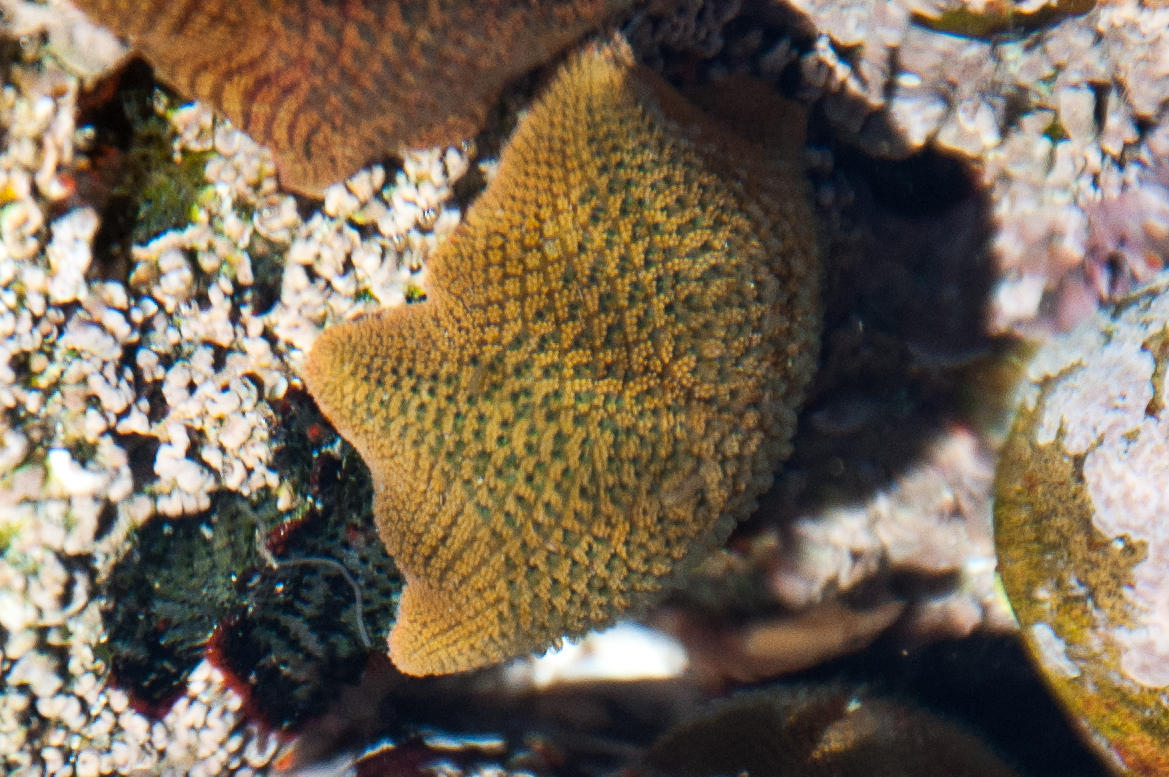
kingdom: Animalia
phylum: Echinodermata
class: Asteroidea
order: Valvatida
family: Asterinidae
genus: Parvulastra
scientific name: Parvulastra exigua
